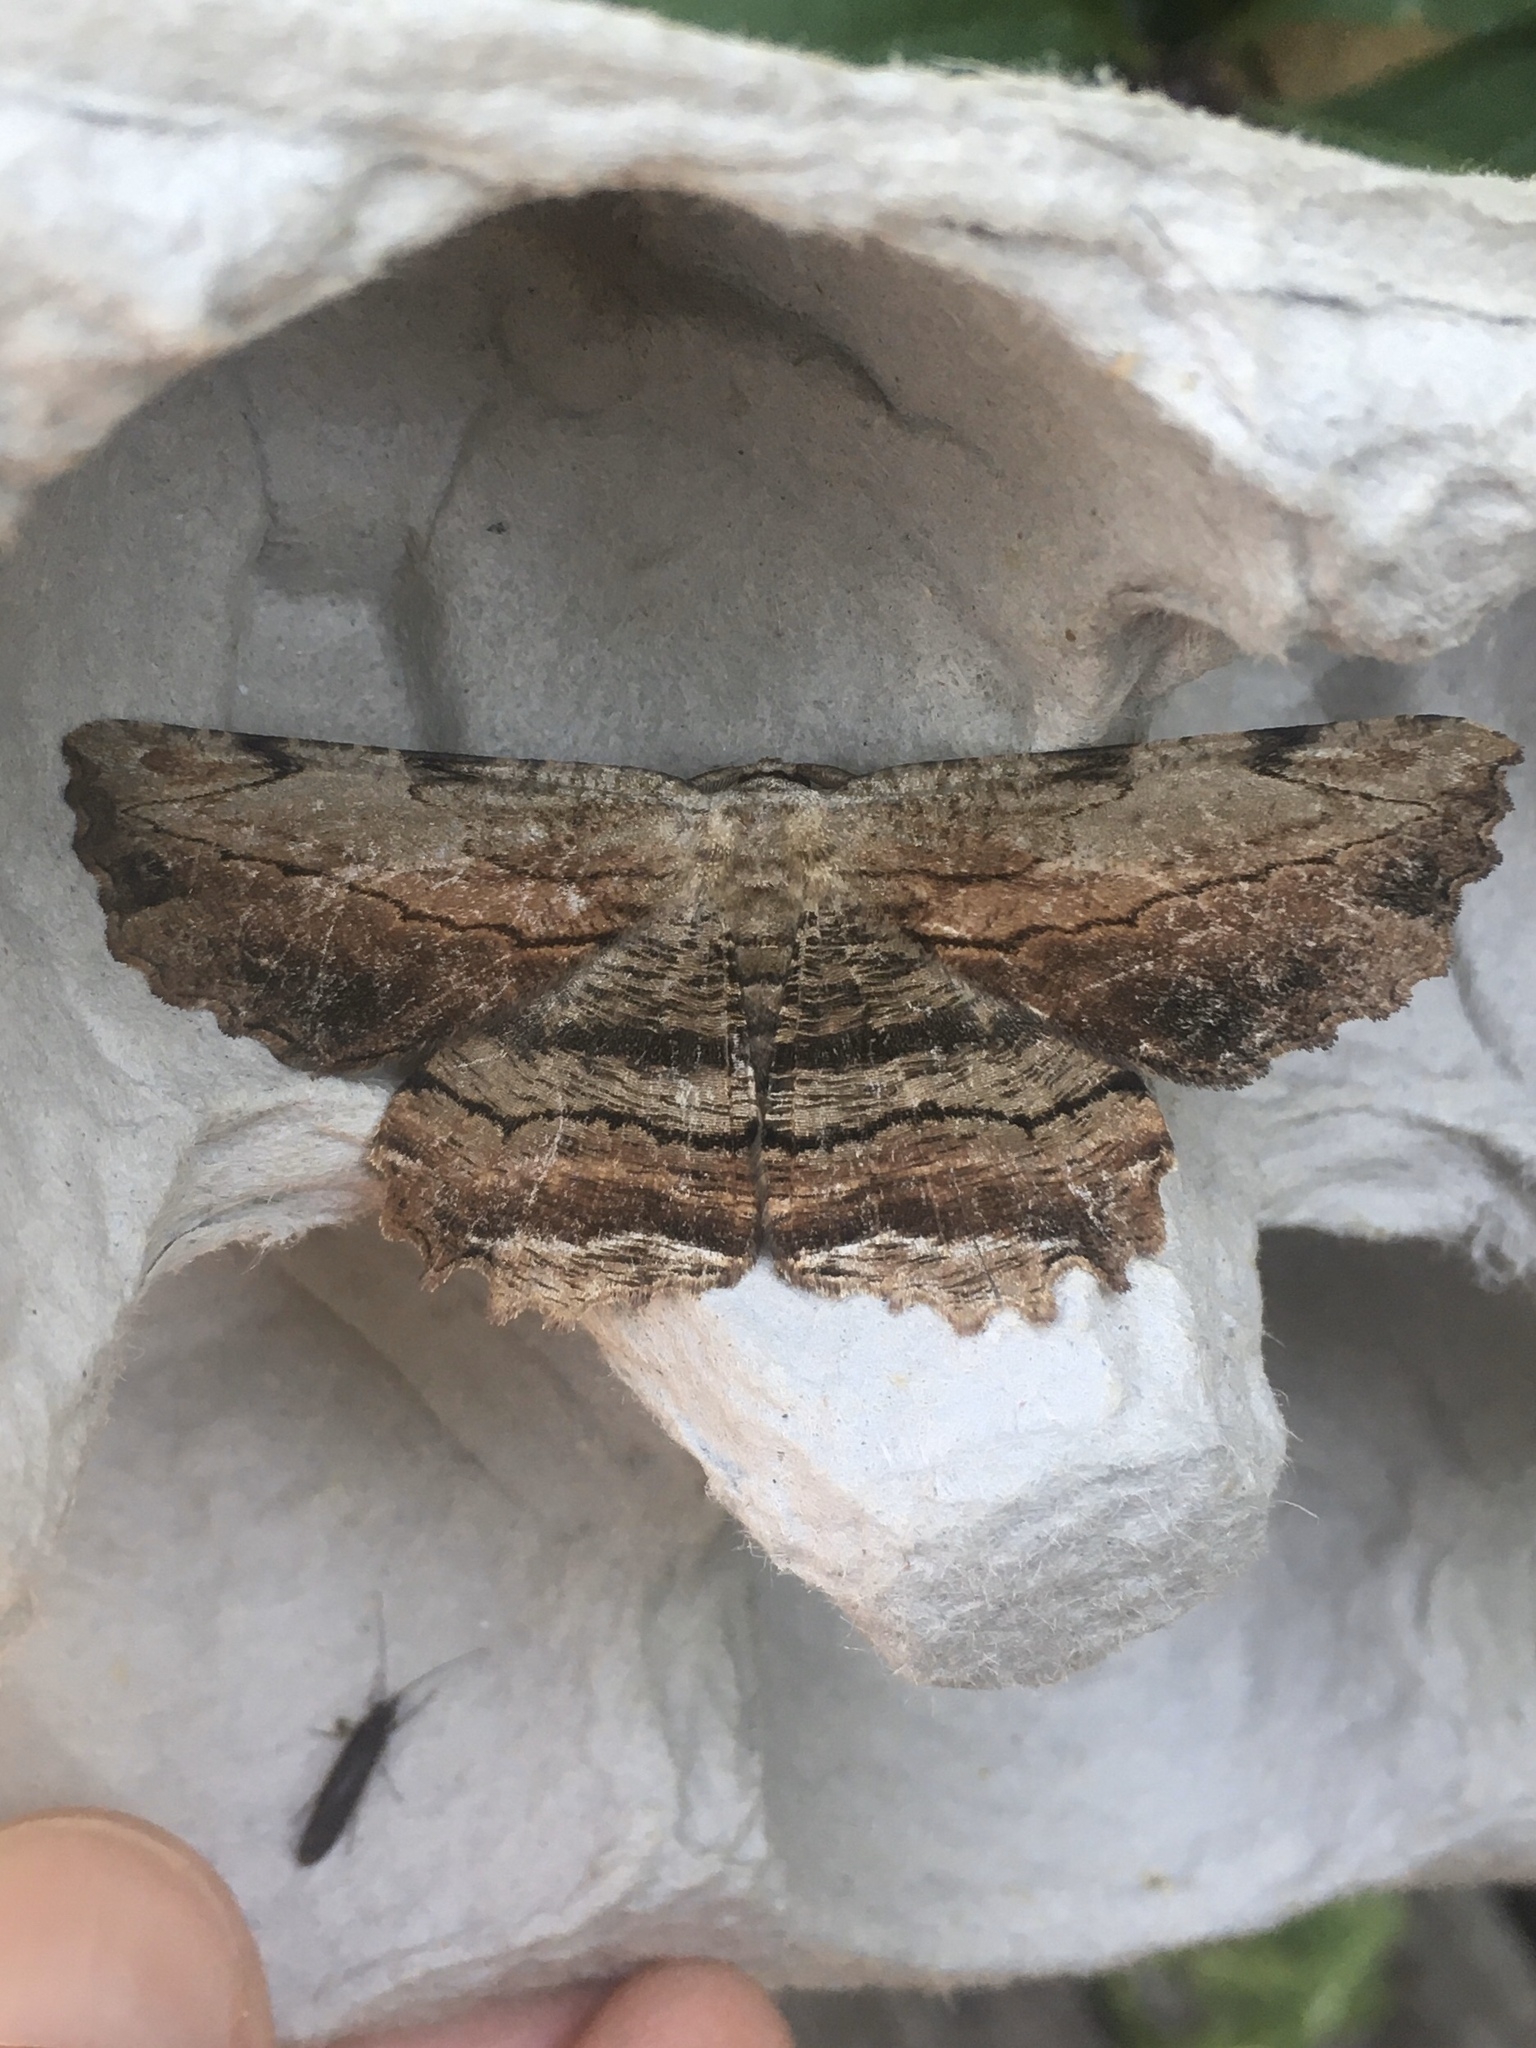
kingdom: Animalia
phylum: Arthropoda
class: Insecta
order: Lepidoptera
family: Geometridae
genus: Lytrosis
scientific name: Lytrosis unitaria
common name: Common lytrosis
